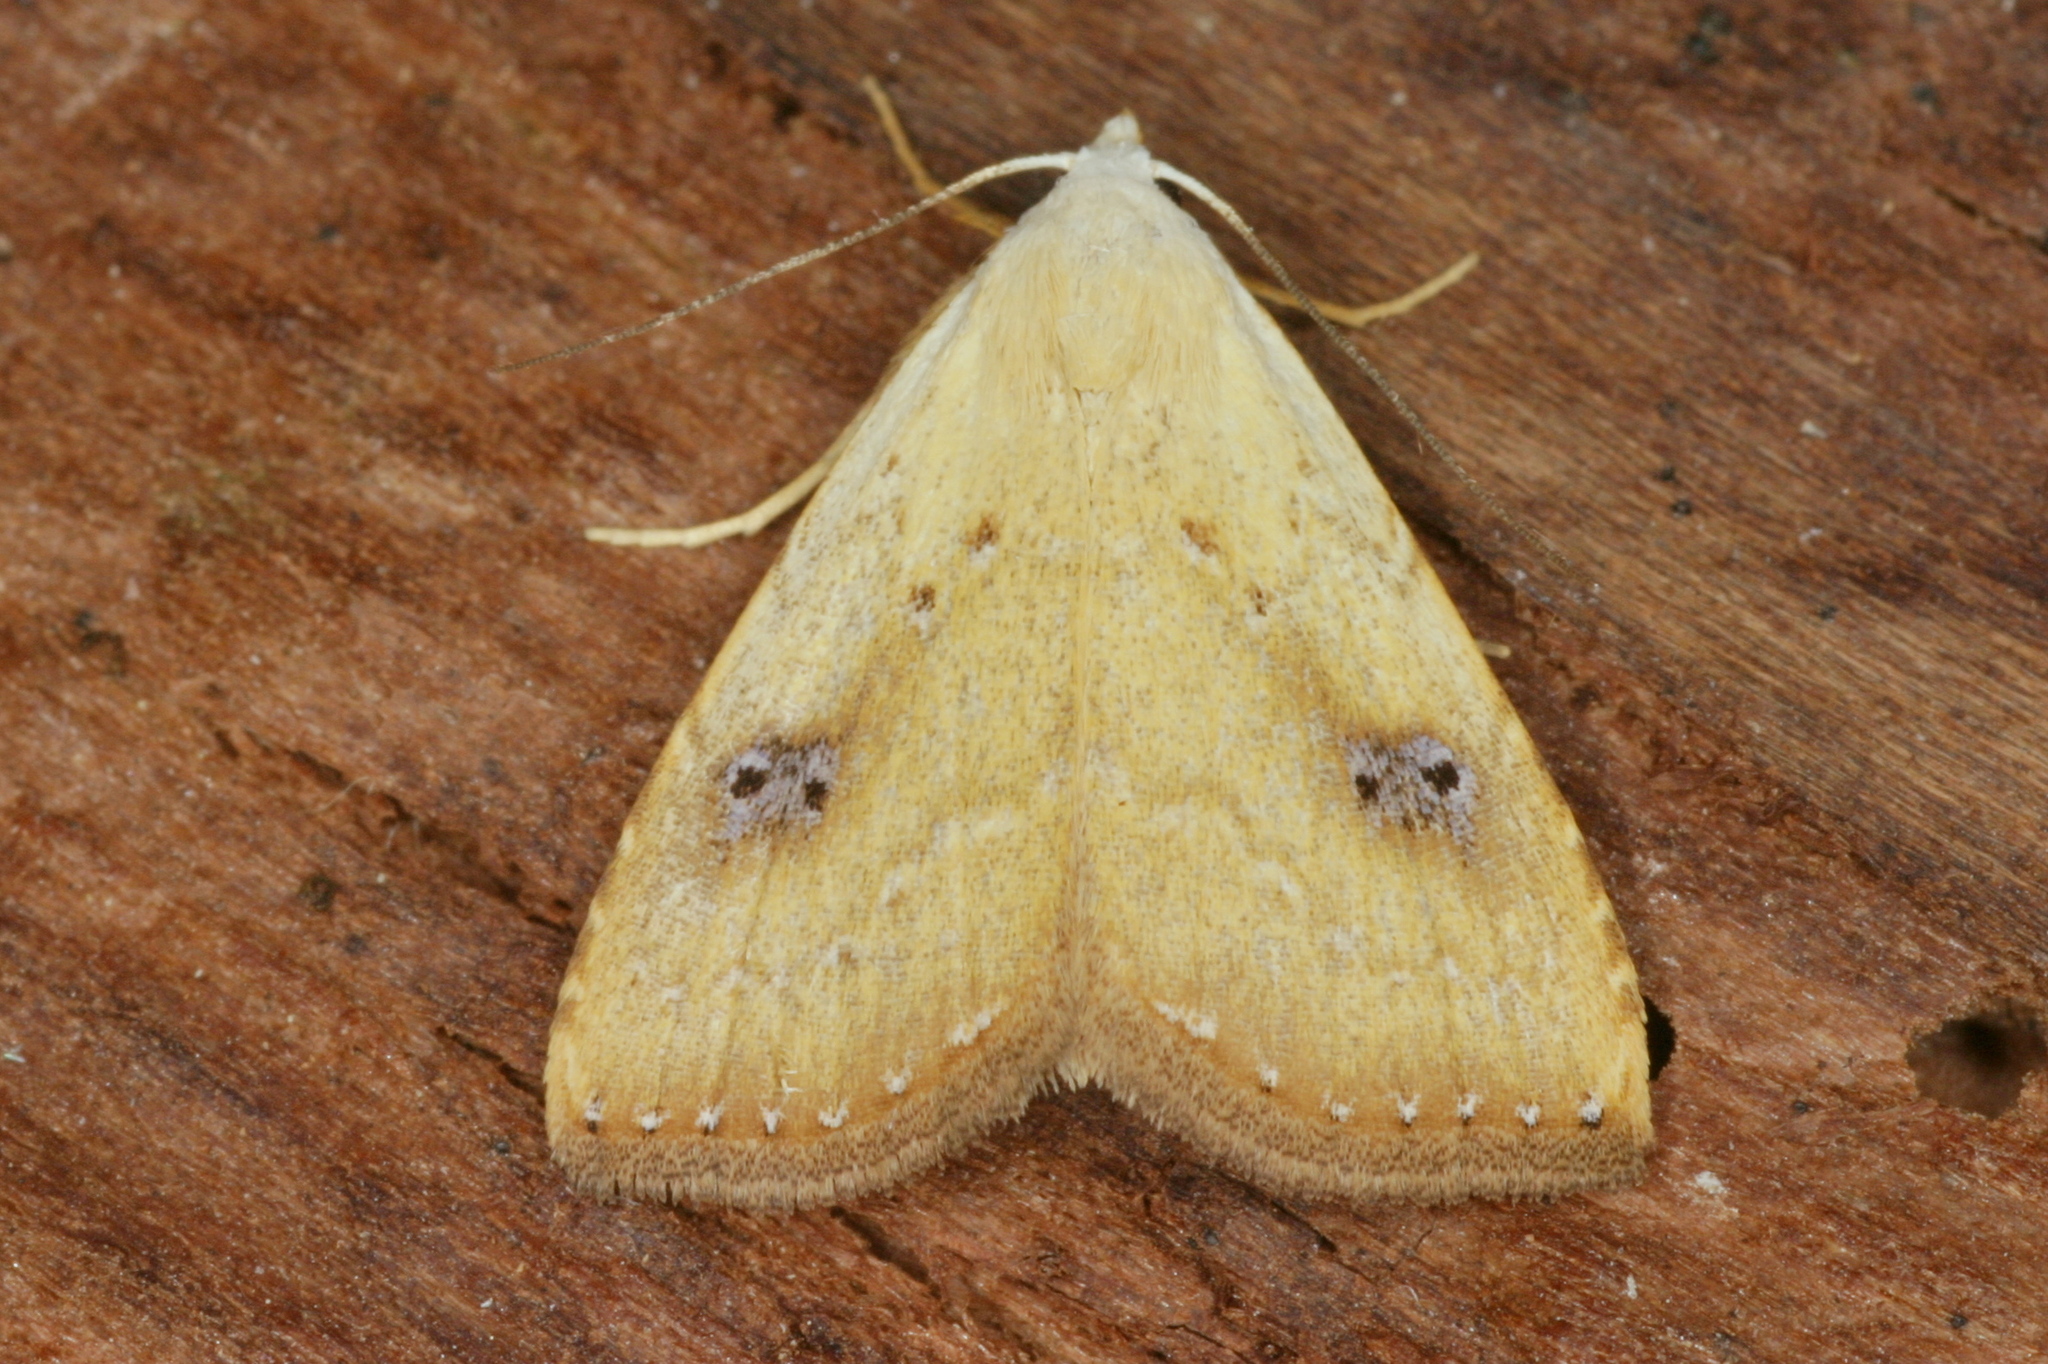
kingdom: Animalia
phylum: Arthropoda
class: Insecta
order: Lepidoptera
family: Erebidae
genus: Rivula
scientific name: Rivula sericealis
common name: Straw dot
